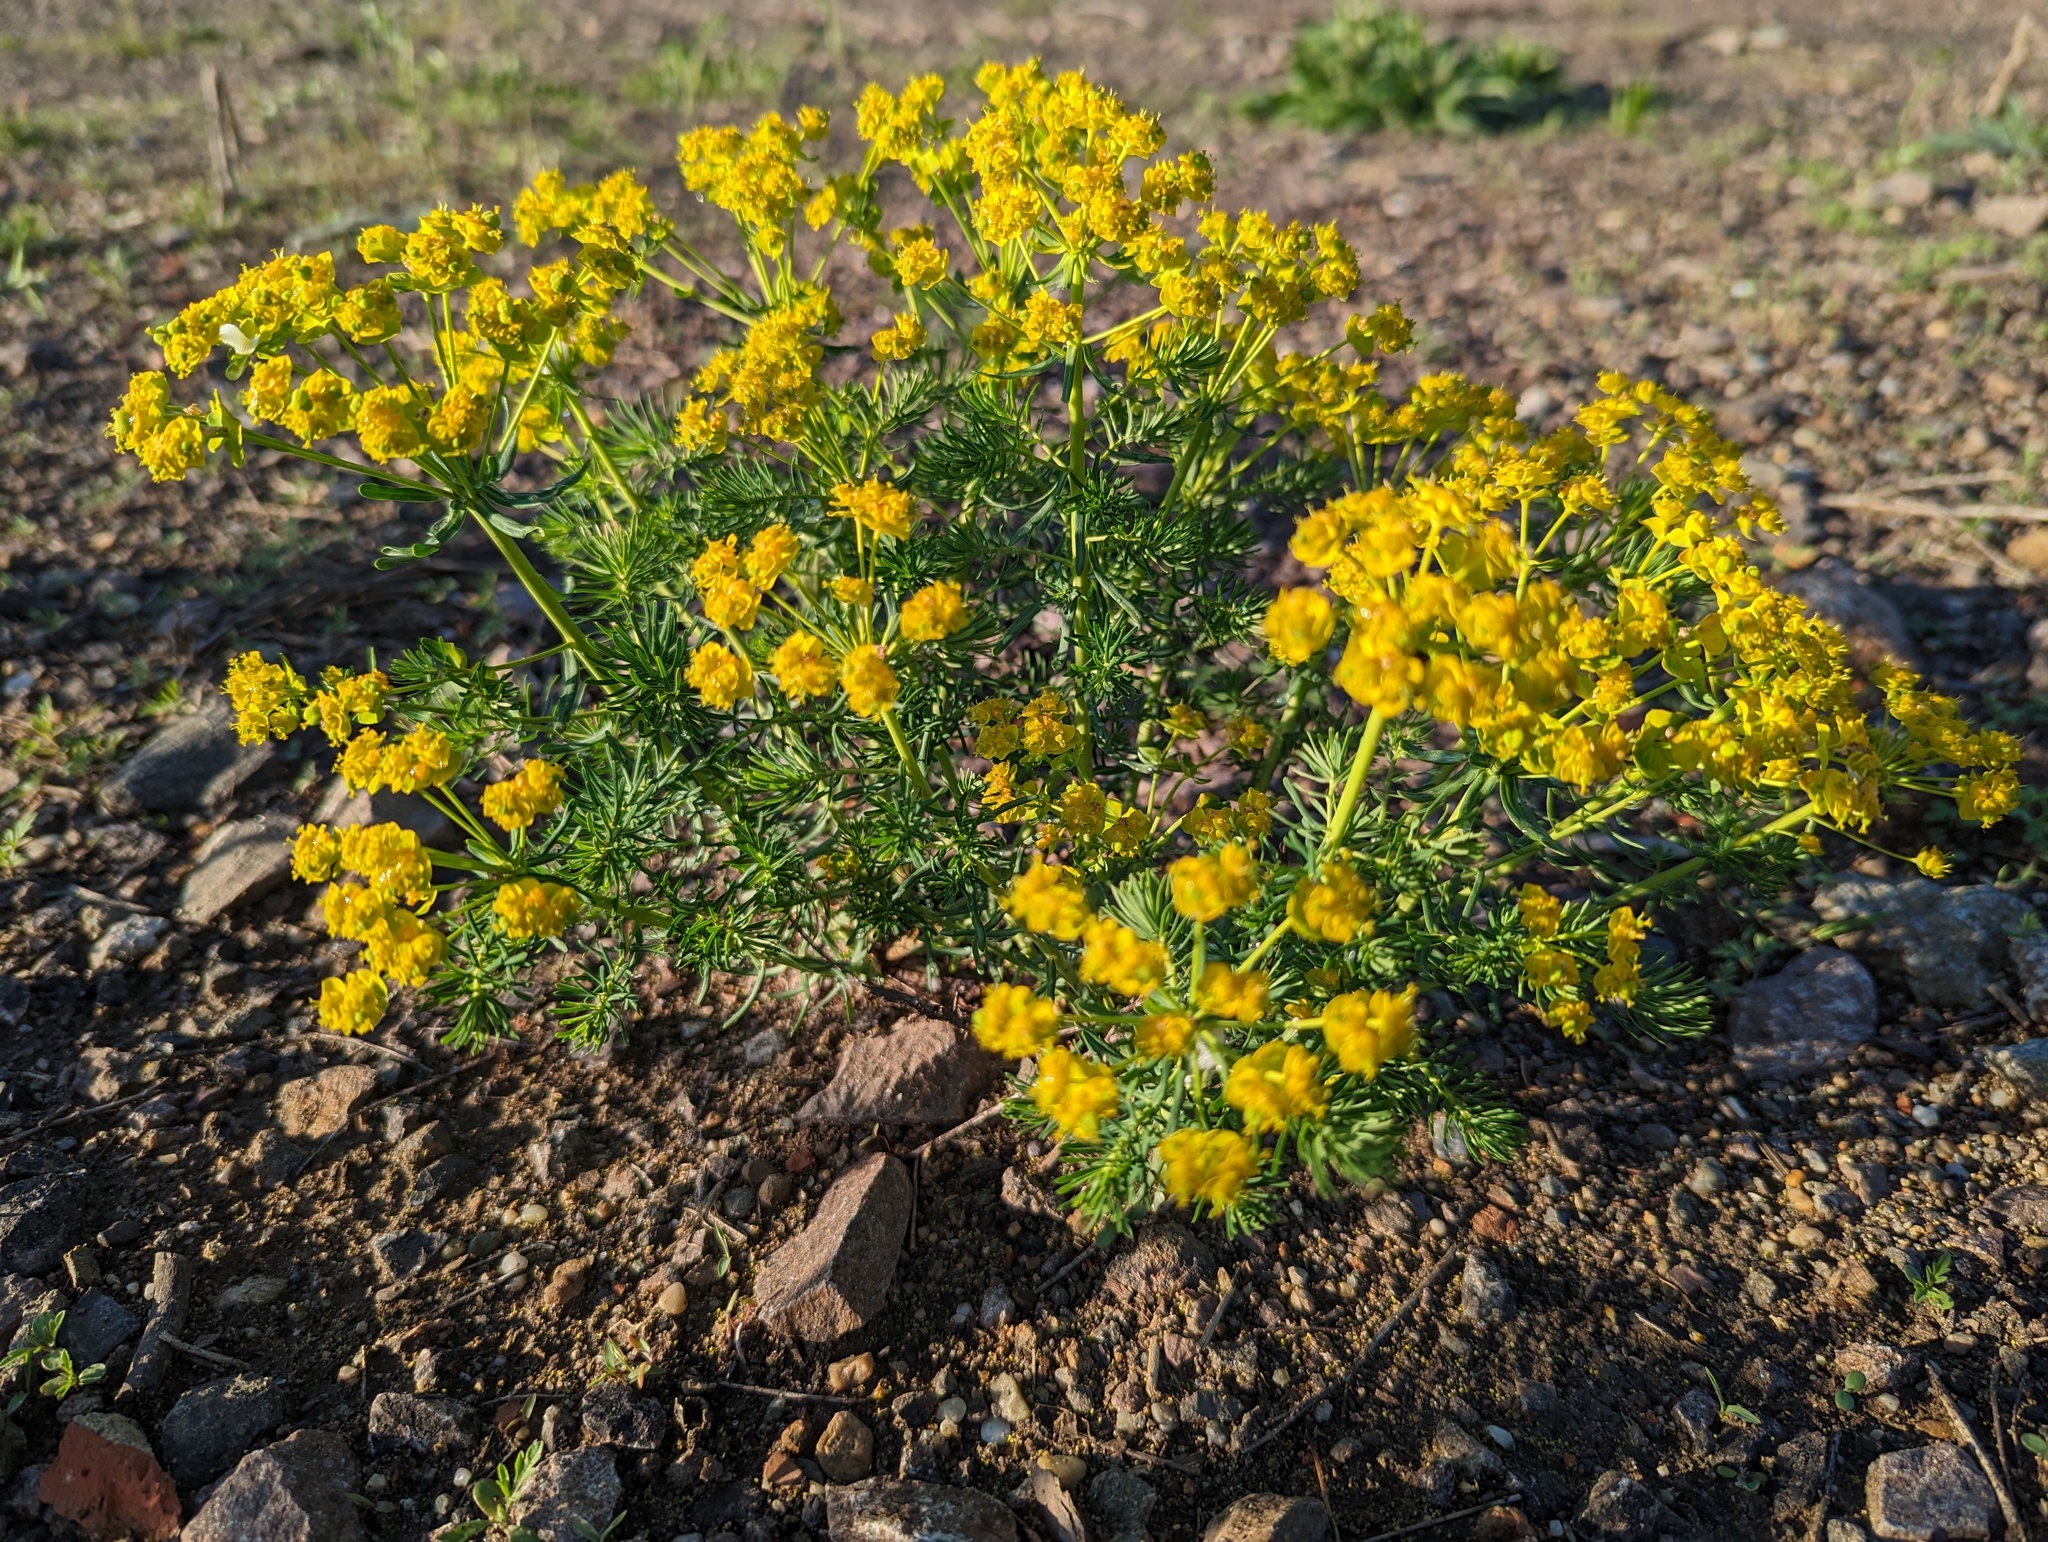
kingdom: Plantae
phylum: Tracheophyta
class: Magnoliopsida
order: Malpighiales
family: Euphorbiaceae
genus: Euphorbia
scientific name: Euphorbia cyparissias
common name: Cypress spurge
